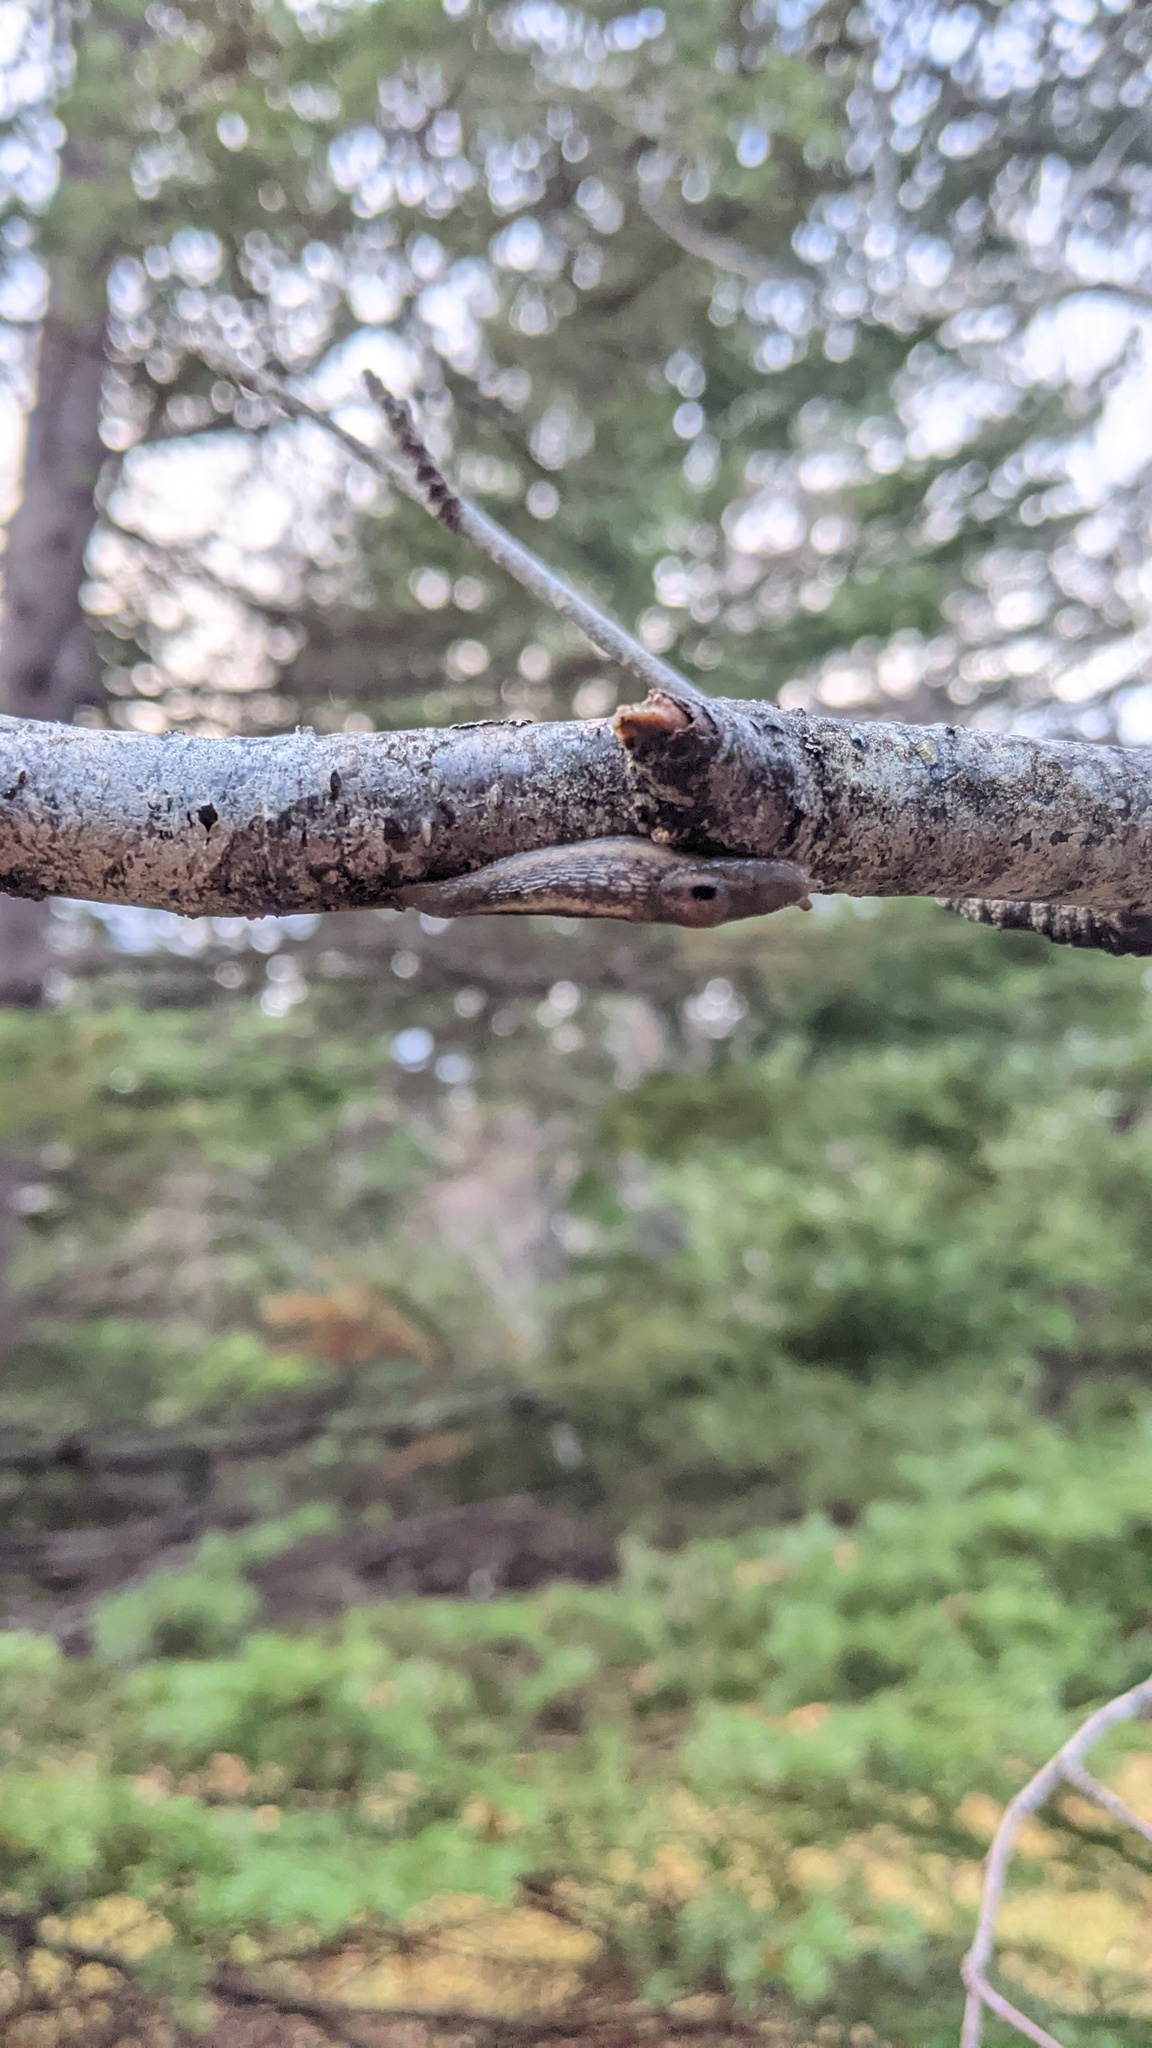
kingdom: Animalia
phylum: Mollusca
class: Gastropoda
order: Stylommatophora
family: Limacidae
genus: Lehmannia
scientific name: Lehmannia marginata
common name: Tree slug
